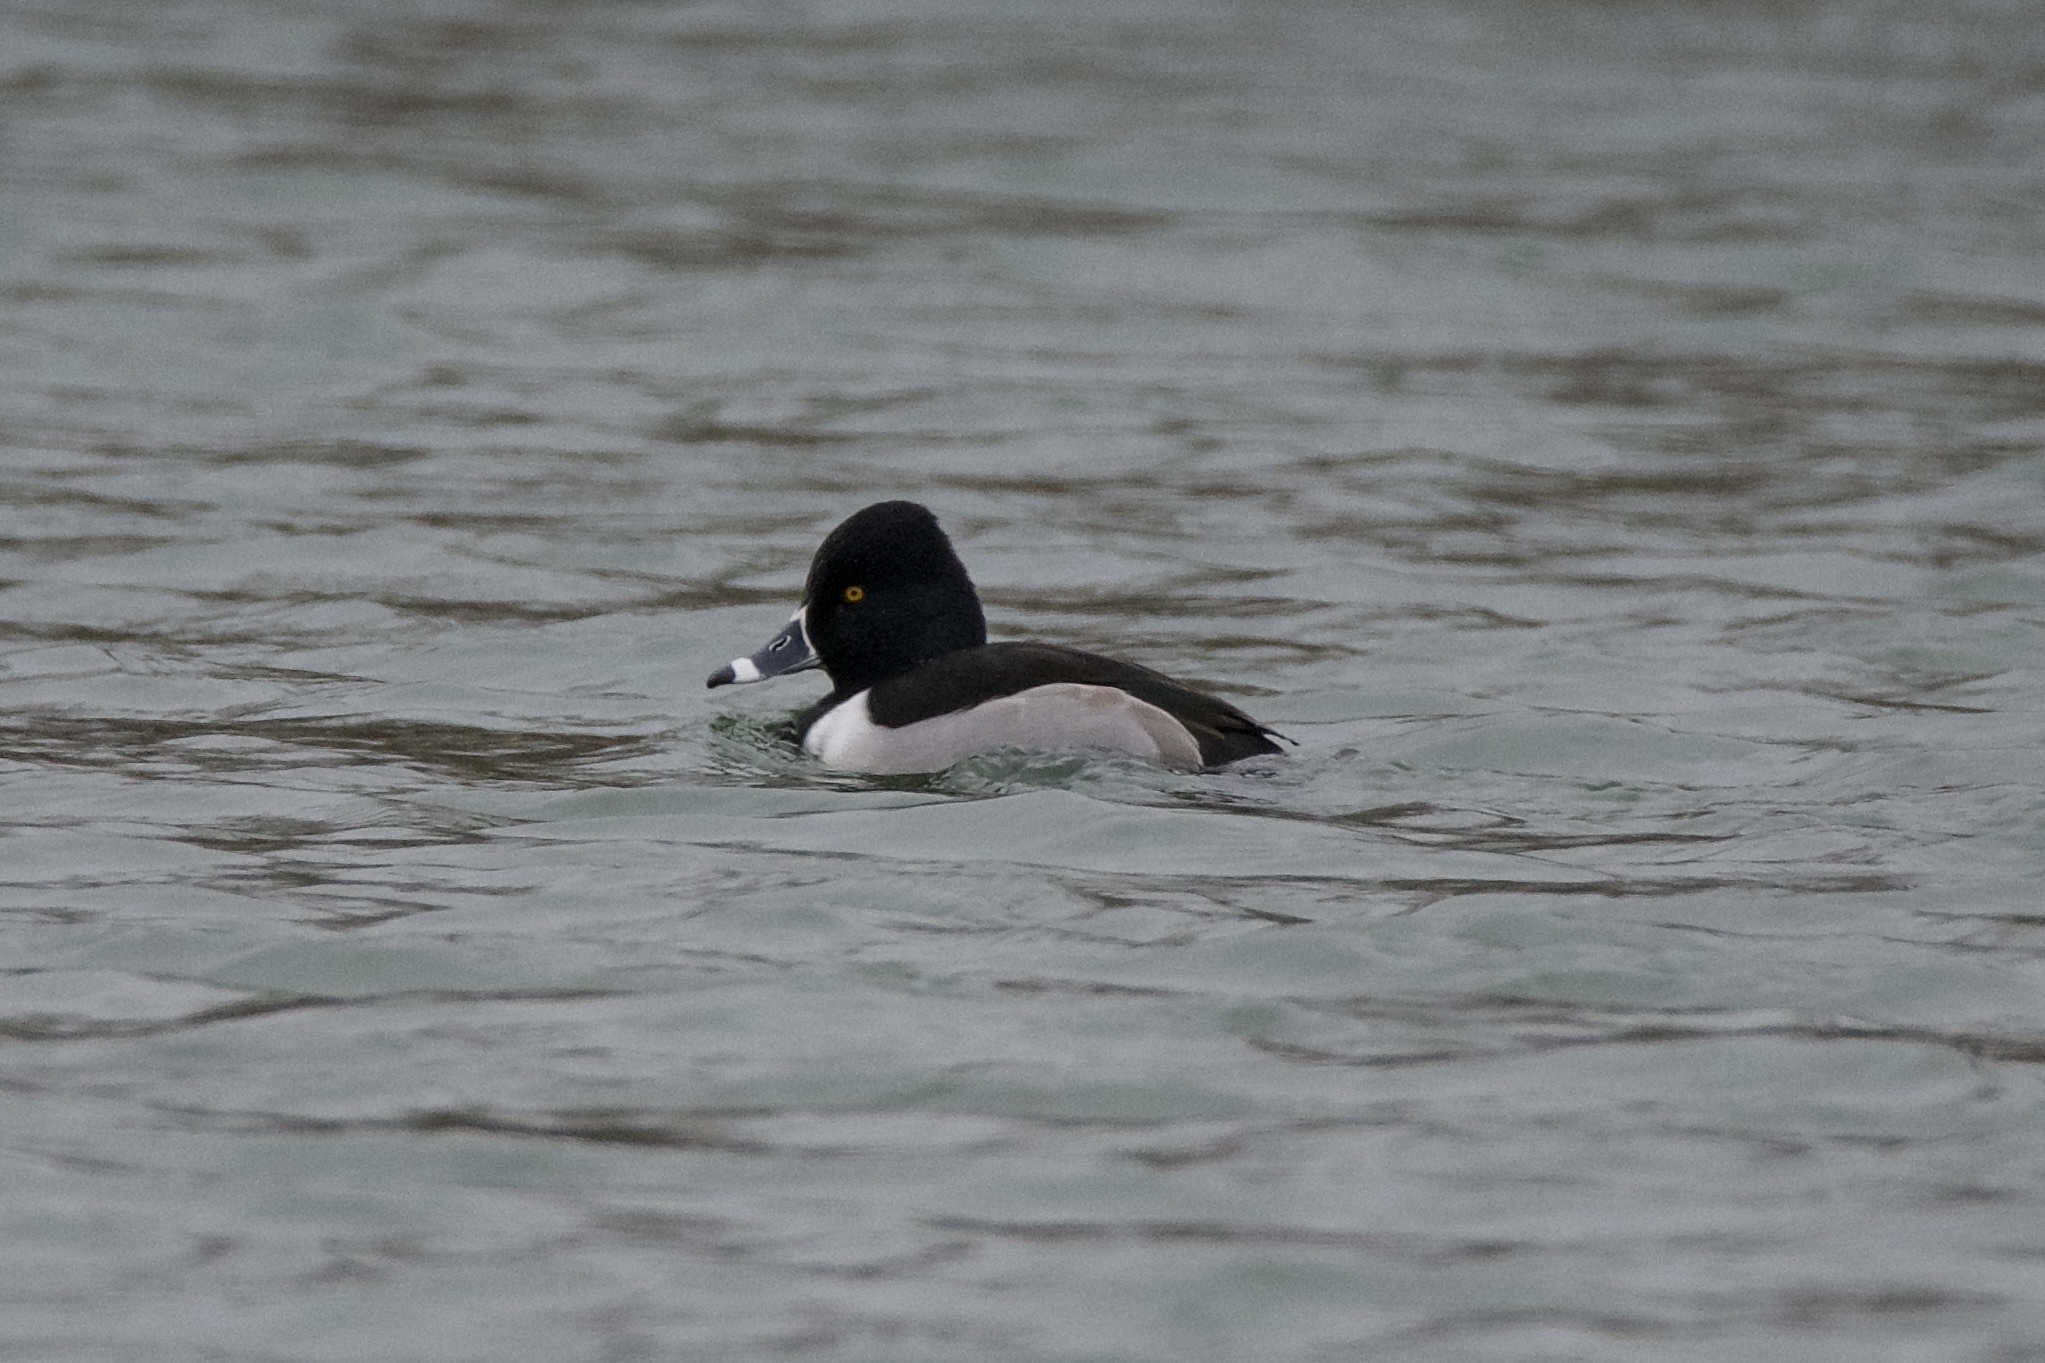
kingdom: Animalia
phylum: Chordata
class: Aves
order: Anseriformes
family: Anatidae
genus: Aythya
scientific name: Aythya collaris
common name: Ring-necked duck
